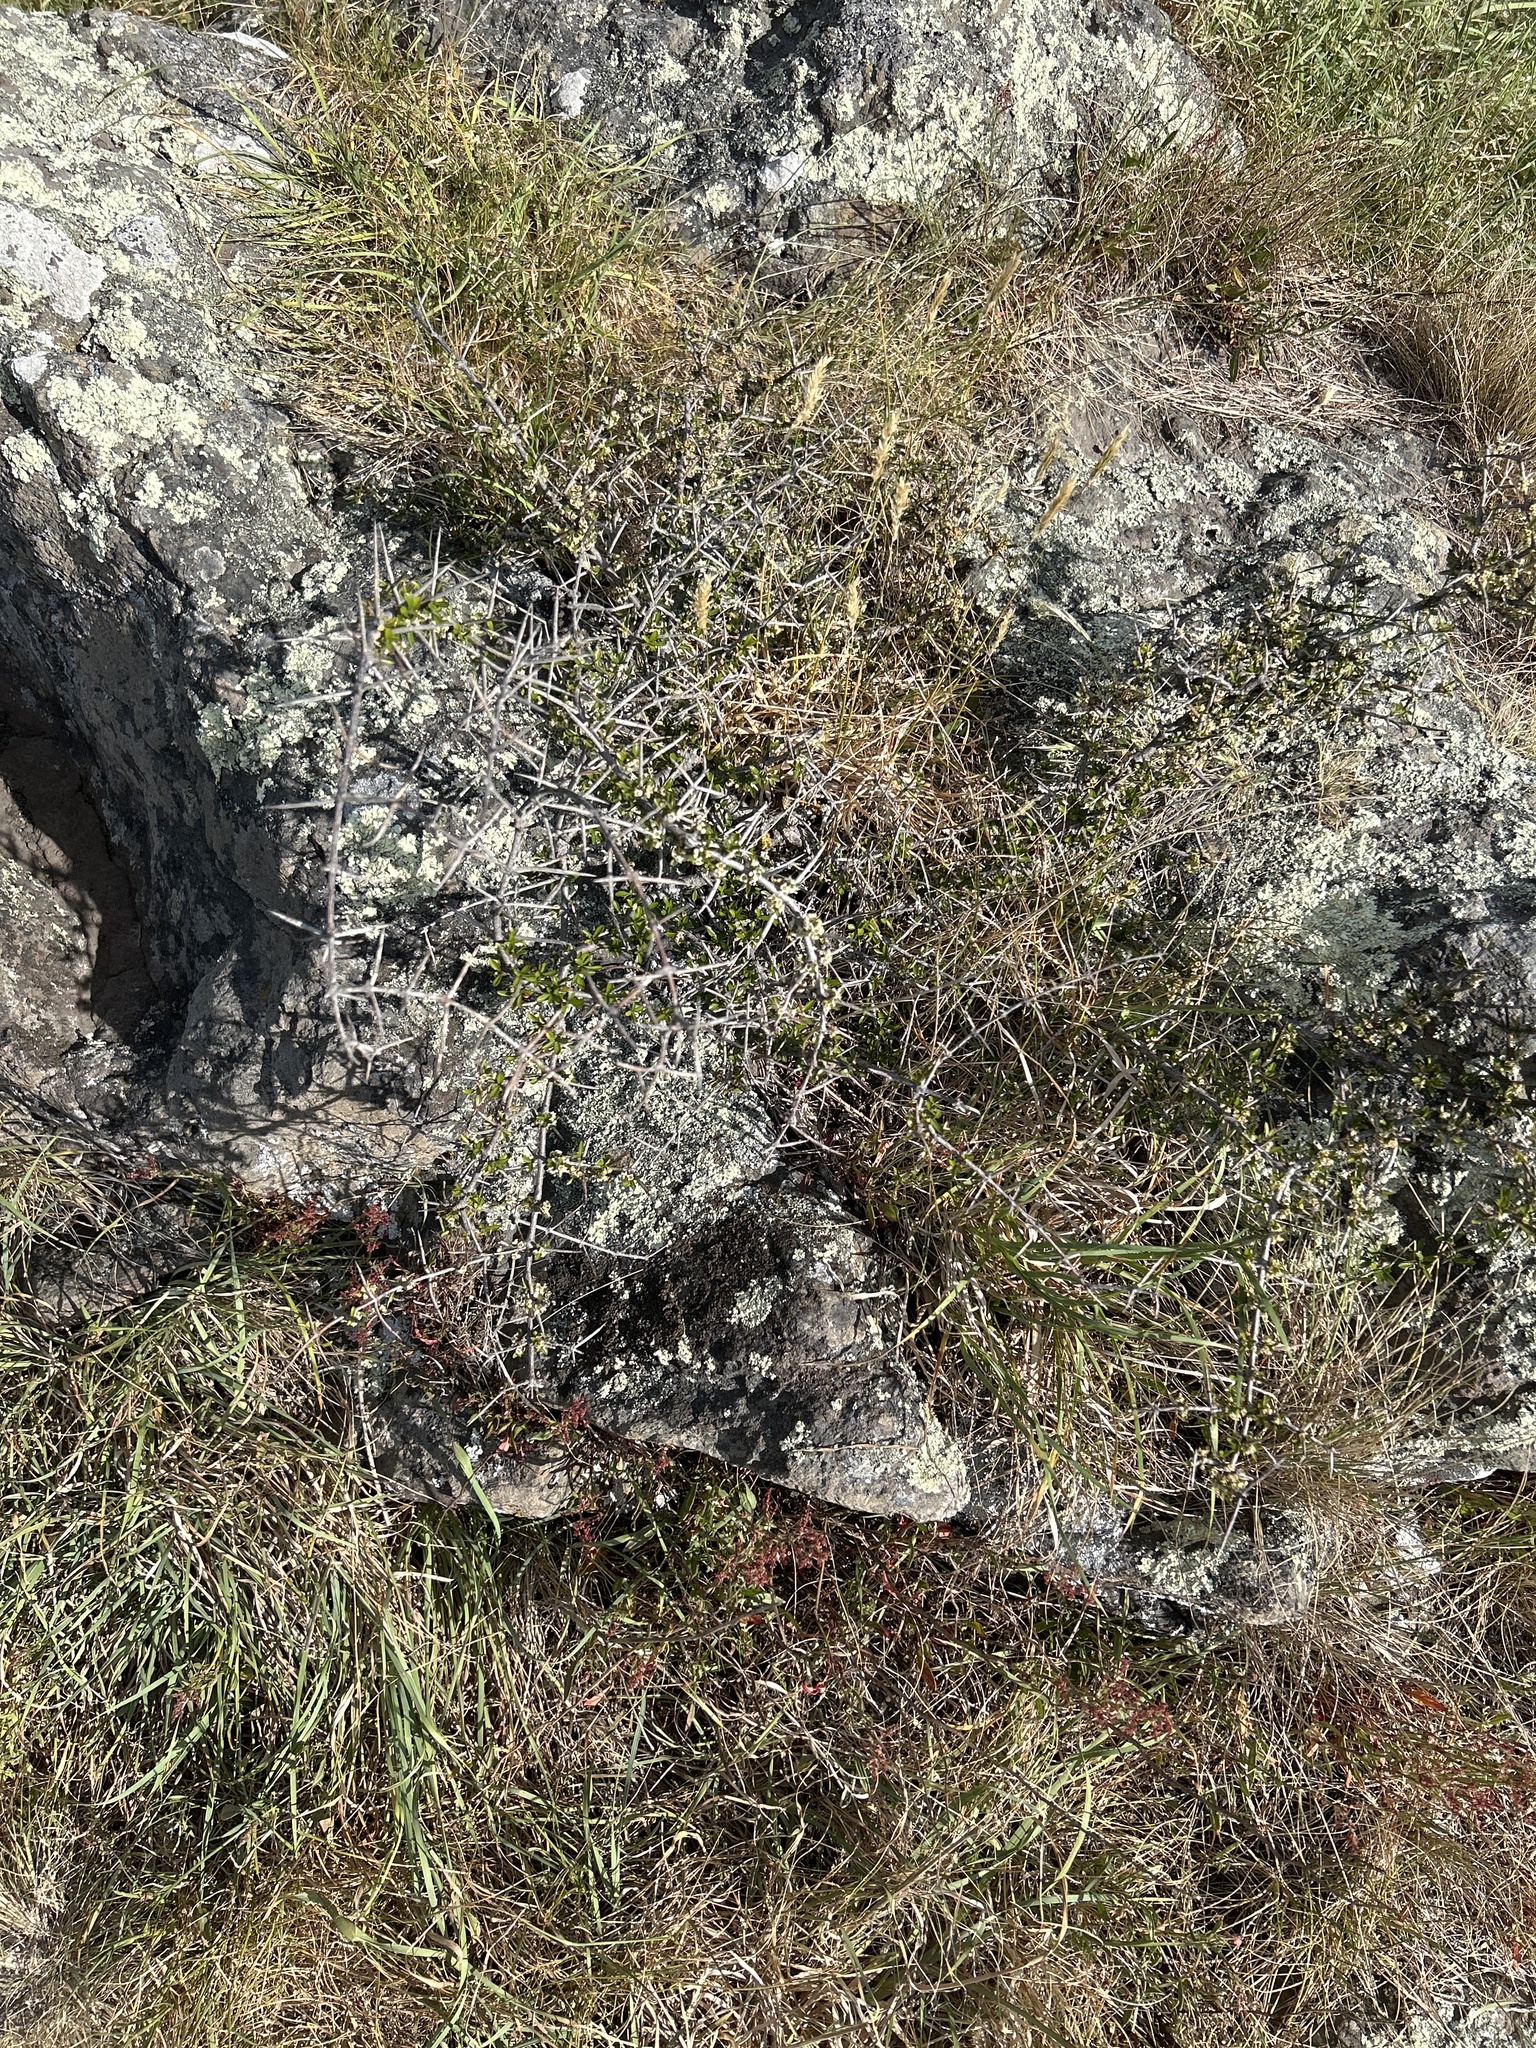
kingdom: Plantae
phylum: Tracheophyta
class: Magnoliopsida
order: Rosales
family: Rhamnaceae
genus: Discaria
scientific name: Discaria toumatou
